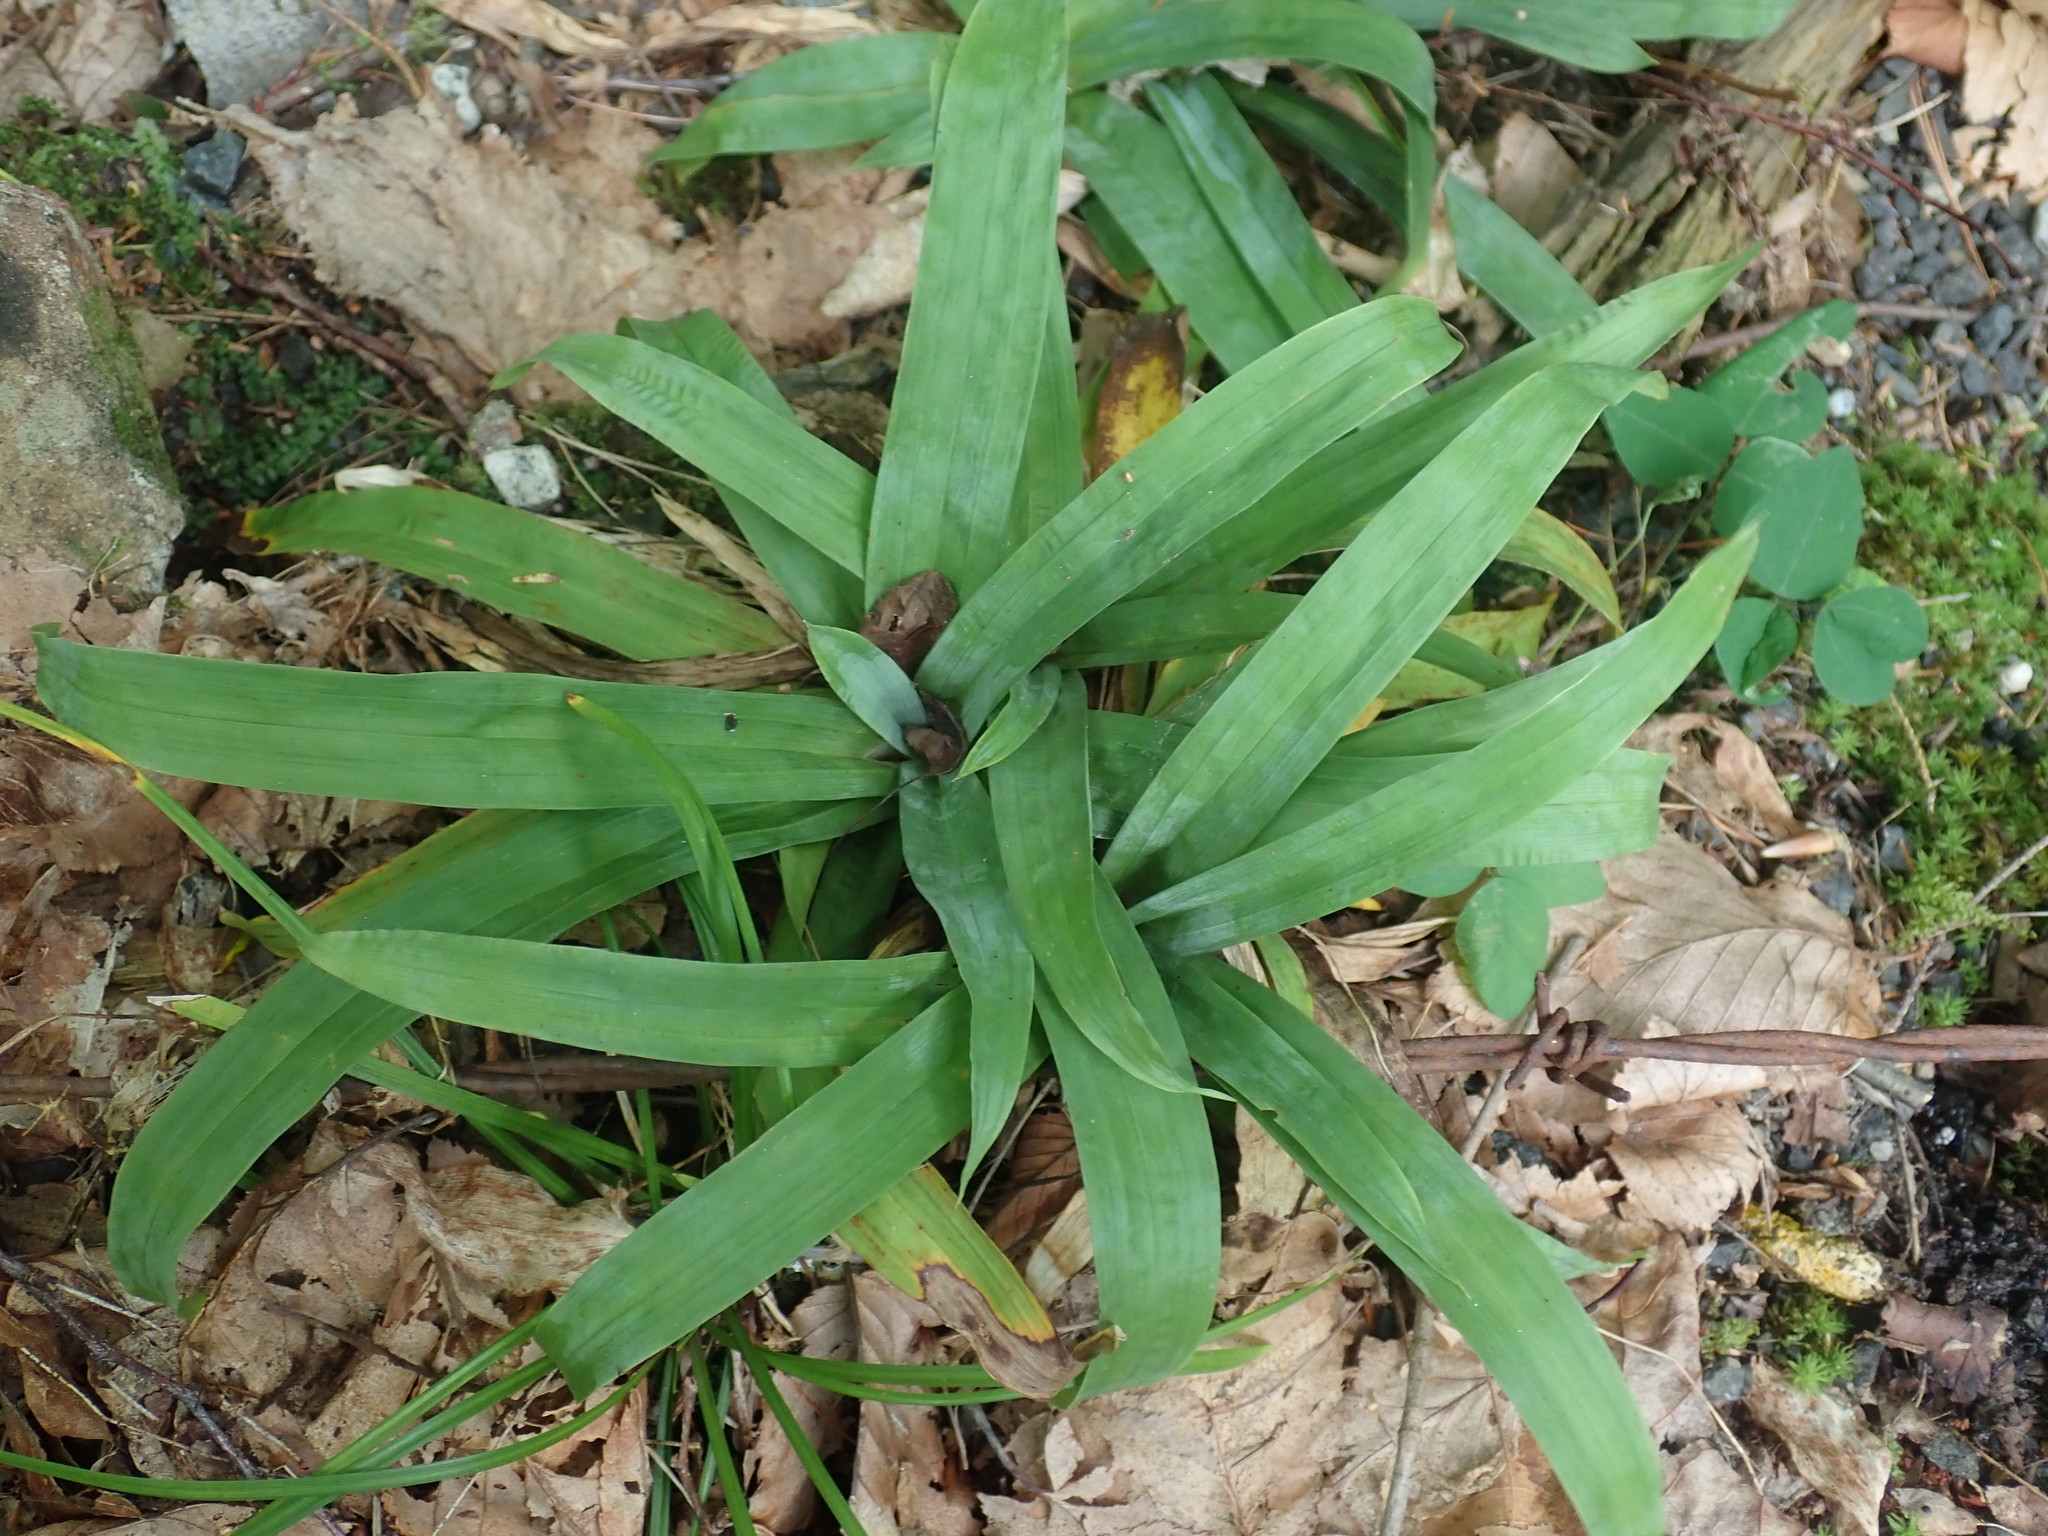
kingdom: Plantae
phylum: Tracheophyta
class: Liliopsida
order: Poales
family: Cyperaceae
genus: Carex
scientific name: Carex platyphylla
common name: Broad-leaved sedge
